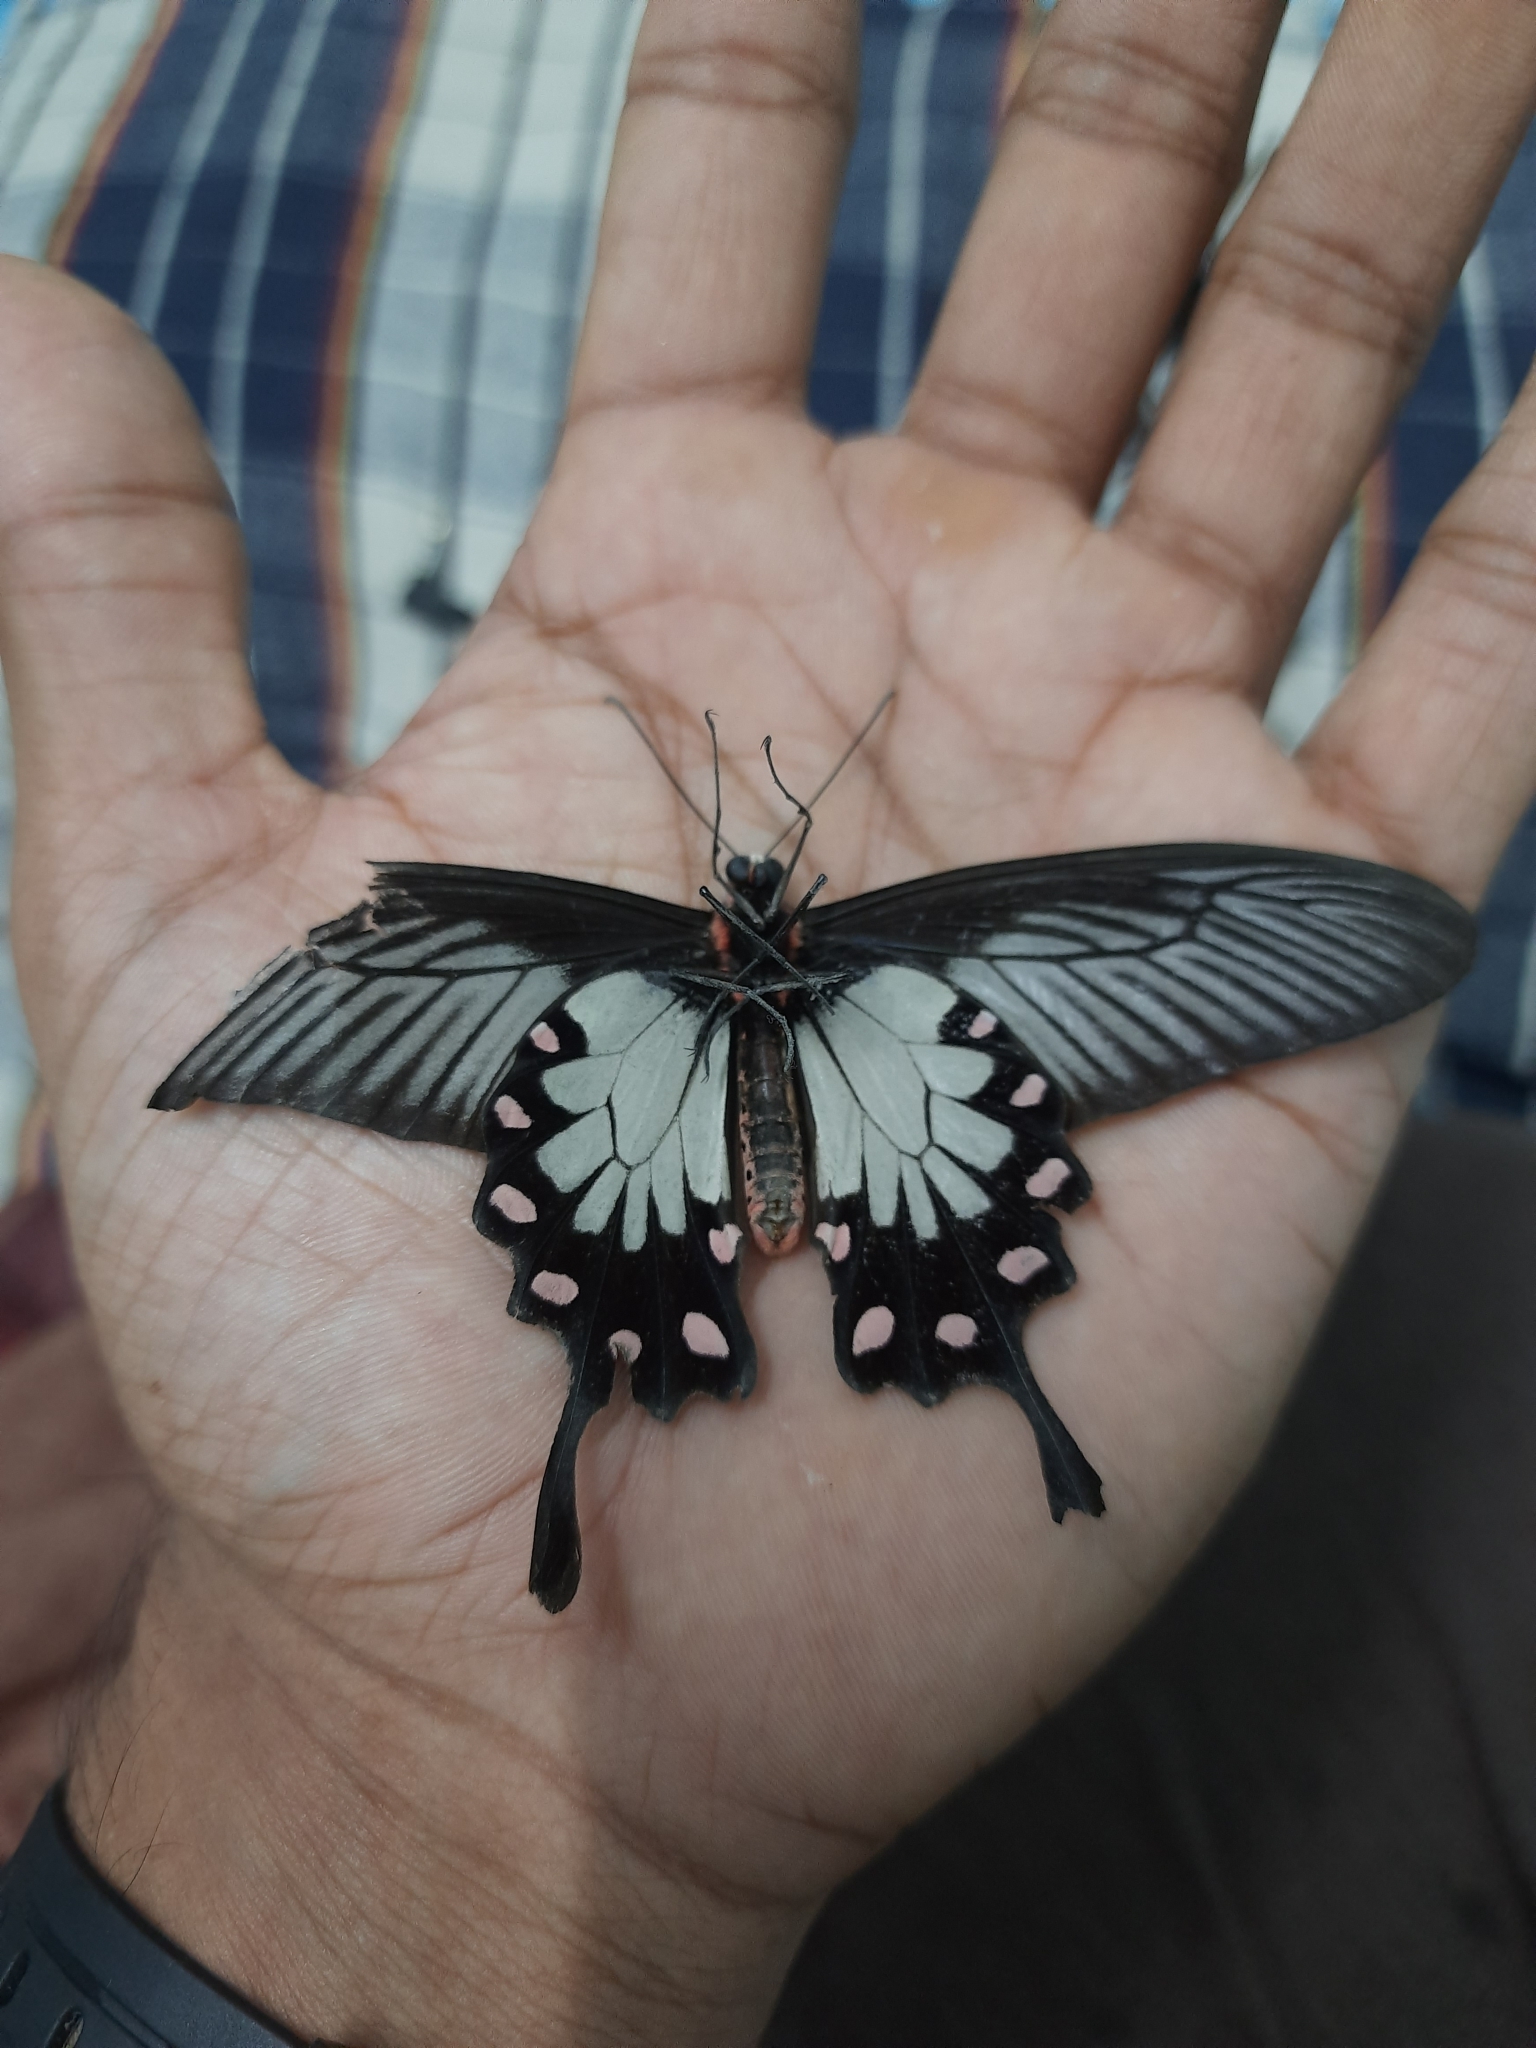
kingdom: Animalia
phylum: Arthropoda
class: Insecta
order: Lepidoptera
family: Papilionidae
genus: Pachliopta
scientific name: Pachliopta pandiyana
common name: Malabar rose
